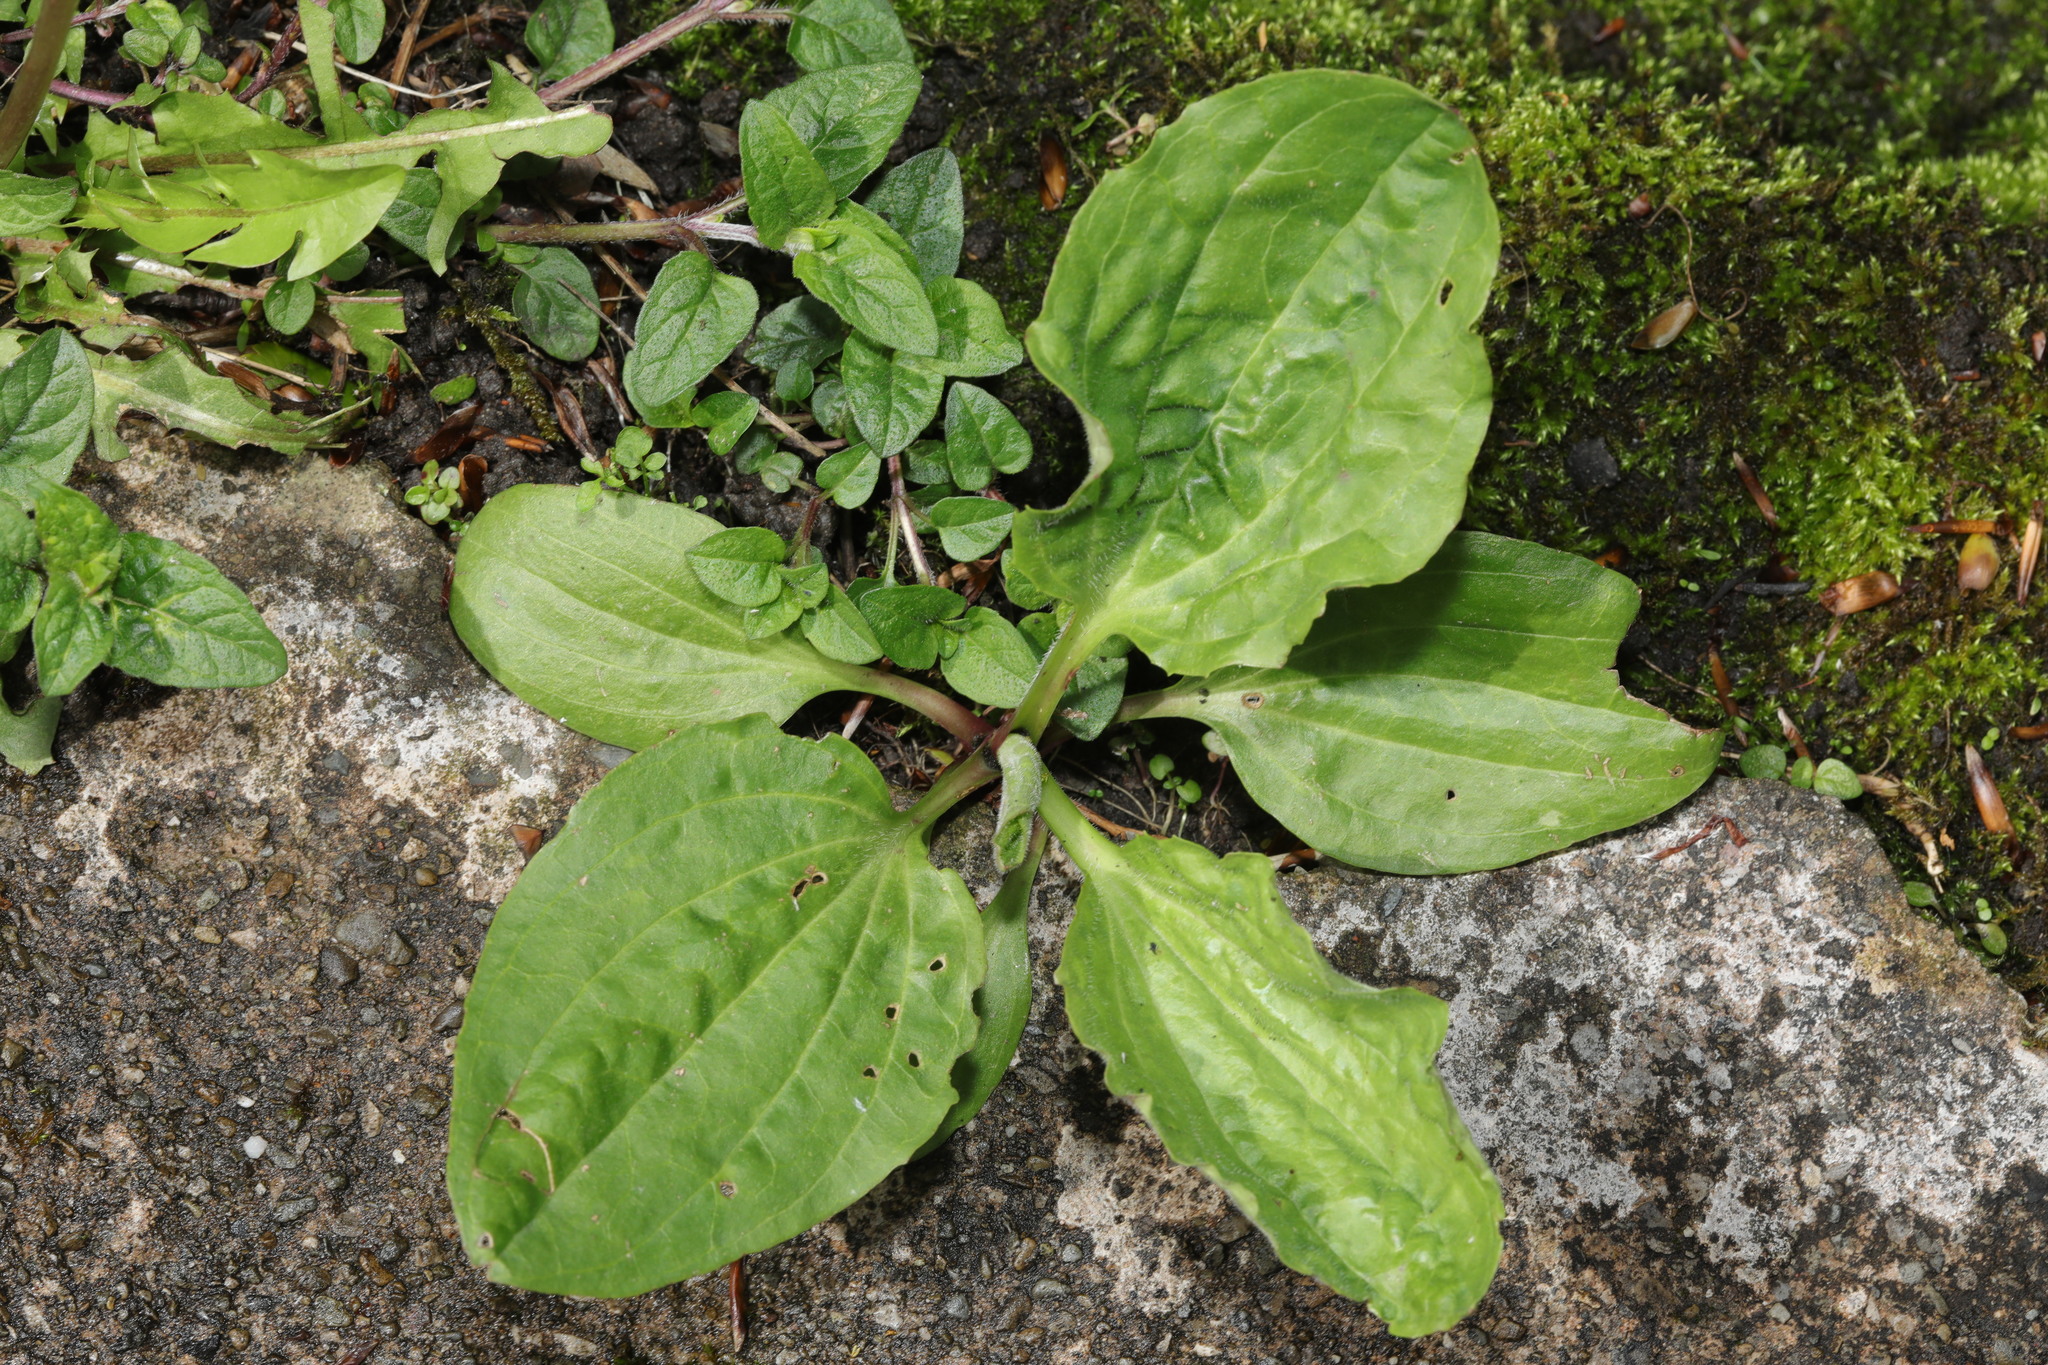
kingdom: Plantae
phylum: Tracheophyta
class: Magnoliopsida
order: Lamiales
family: Plantaginaceae
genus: Plantago
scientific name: Plantago major
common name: Common plantain
